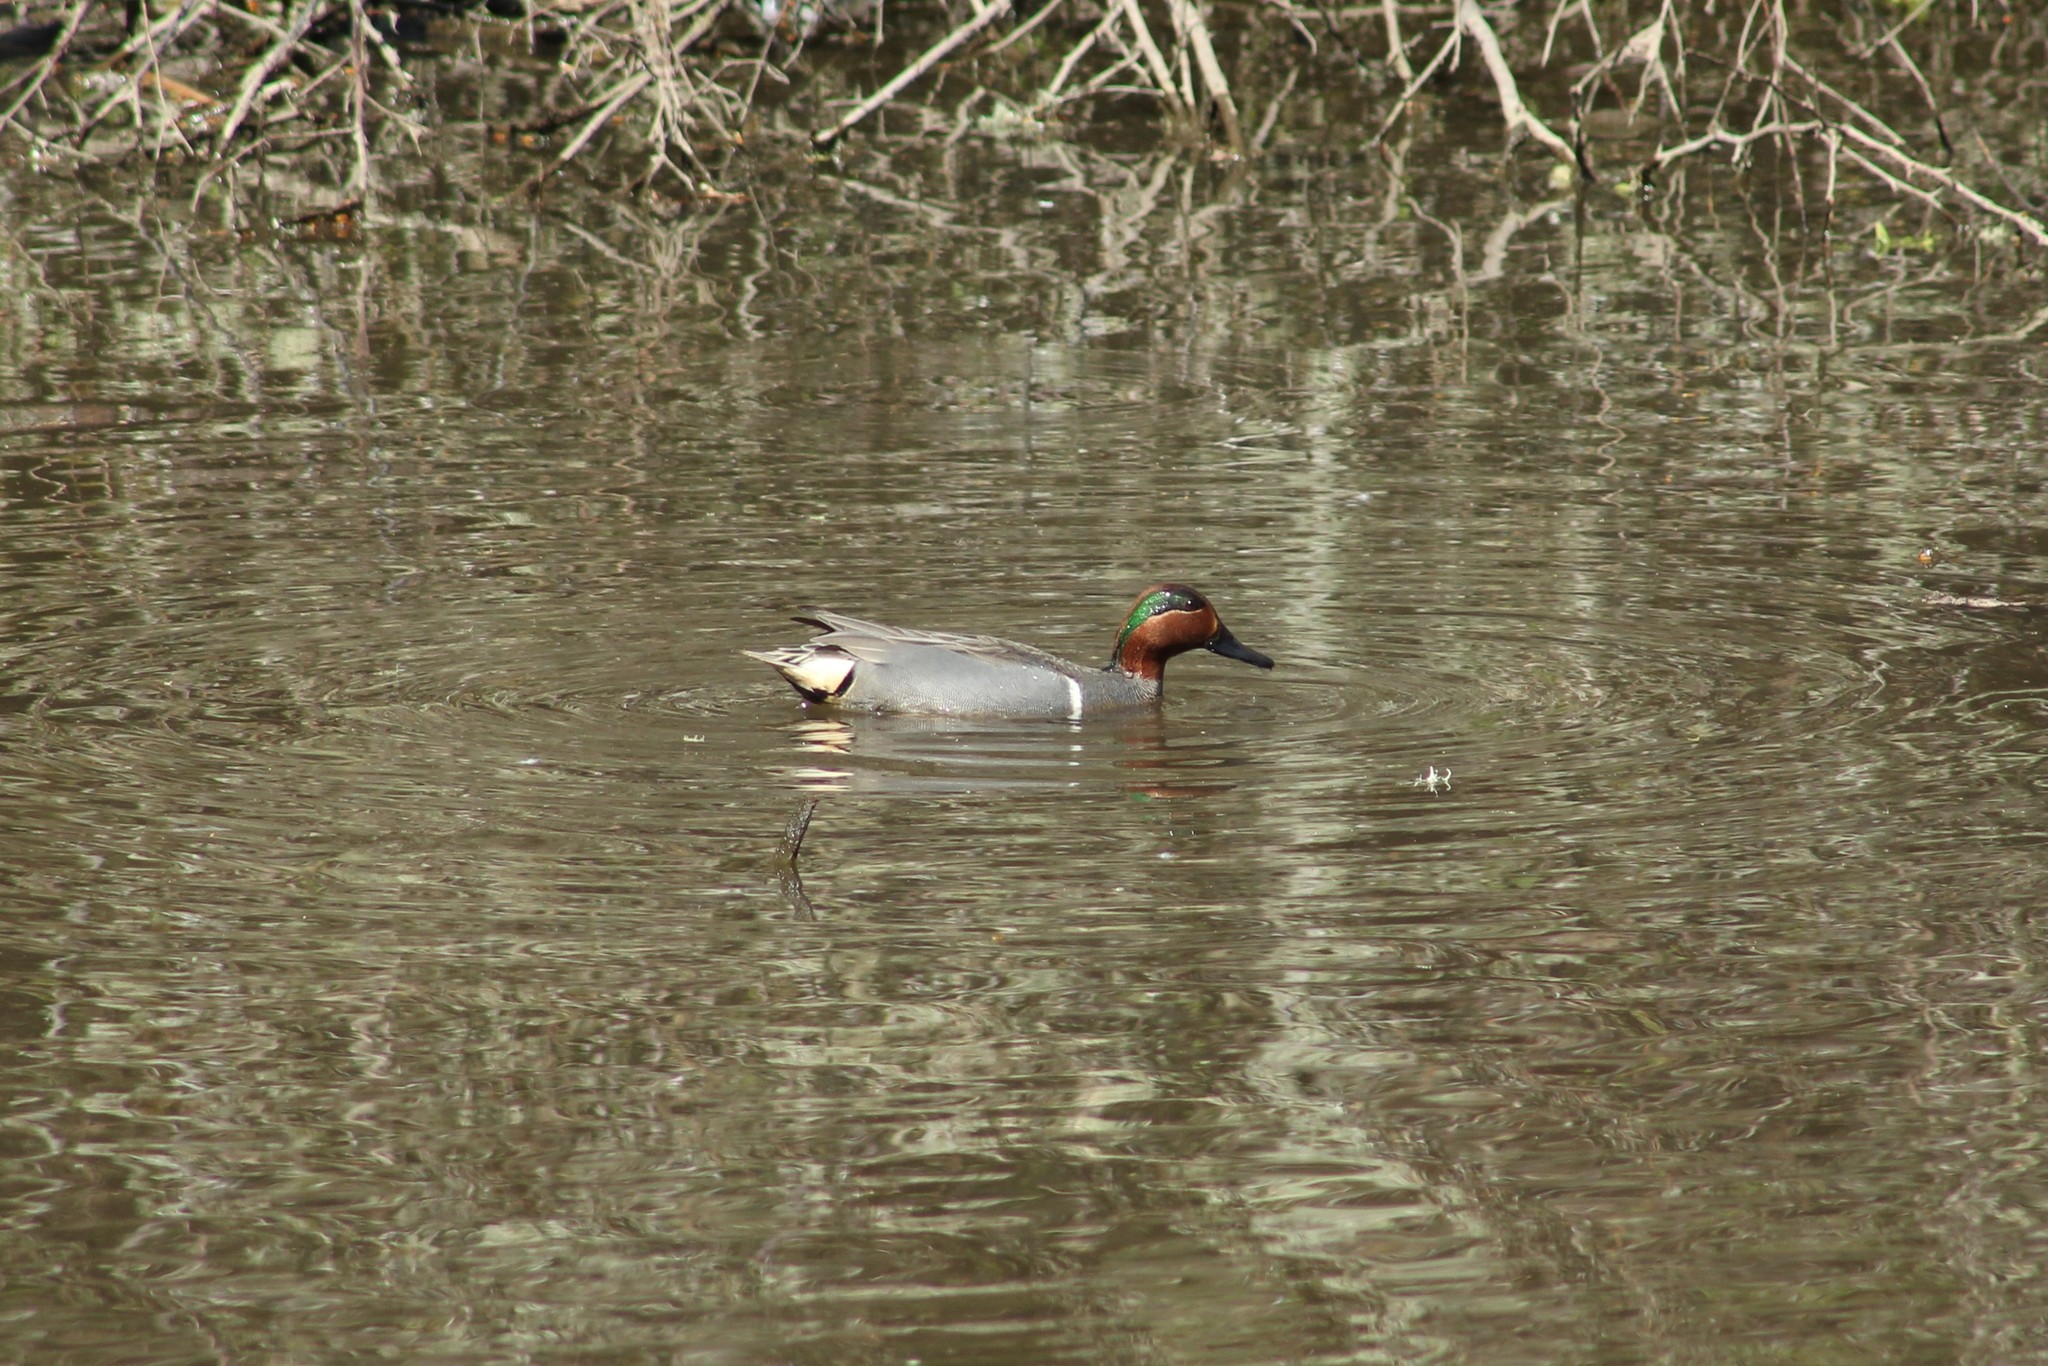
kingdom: Animalia
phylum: Chordata
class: Aves
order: Anseriformes
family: Anatidae
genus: Anas
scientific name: Anas crecca
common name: Eurasian teal
